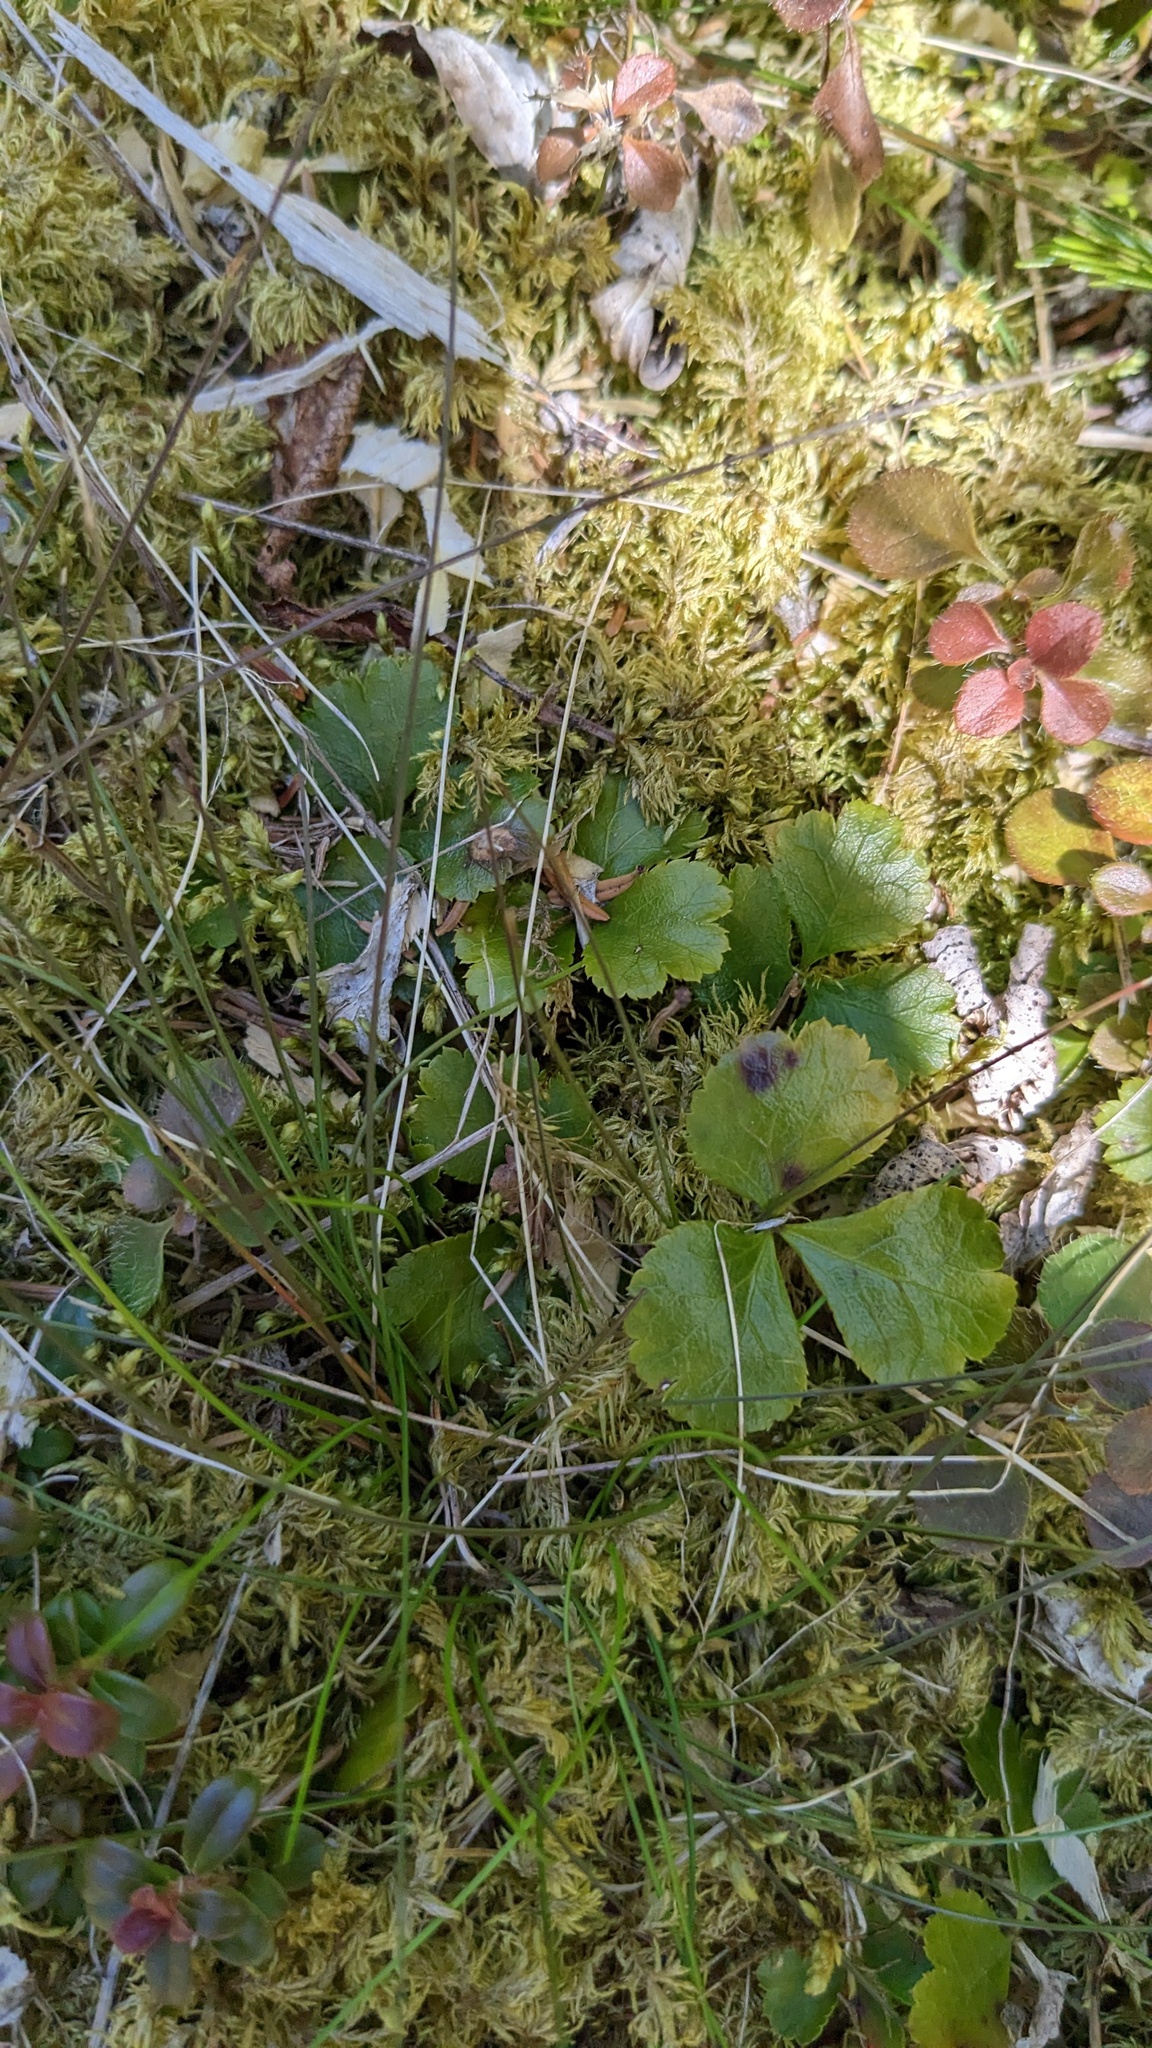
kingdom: Plantae
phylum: Tracheophyta
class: Magnoliopsida
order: Ranunculales
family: Ranunculaceae
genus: Coptis
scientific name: Coptis trifolia
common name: Canker-root
